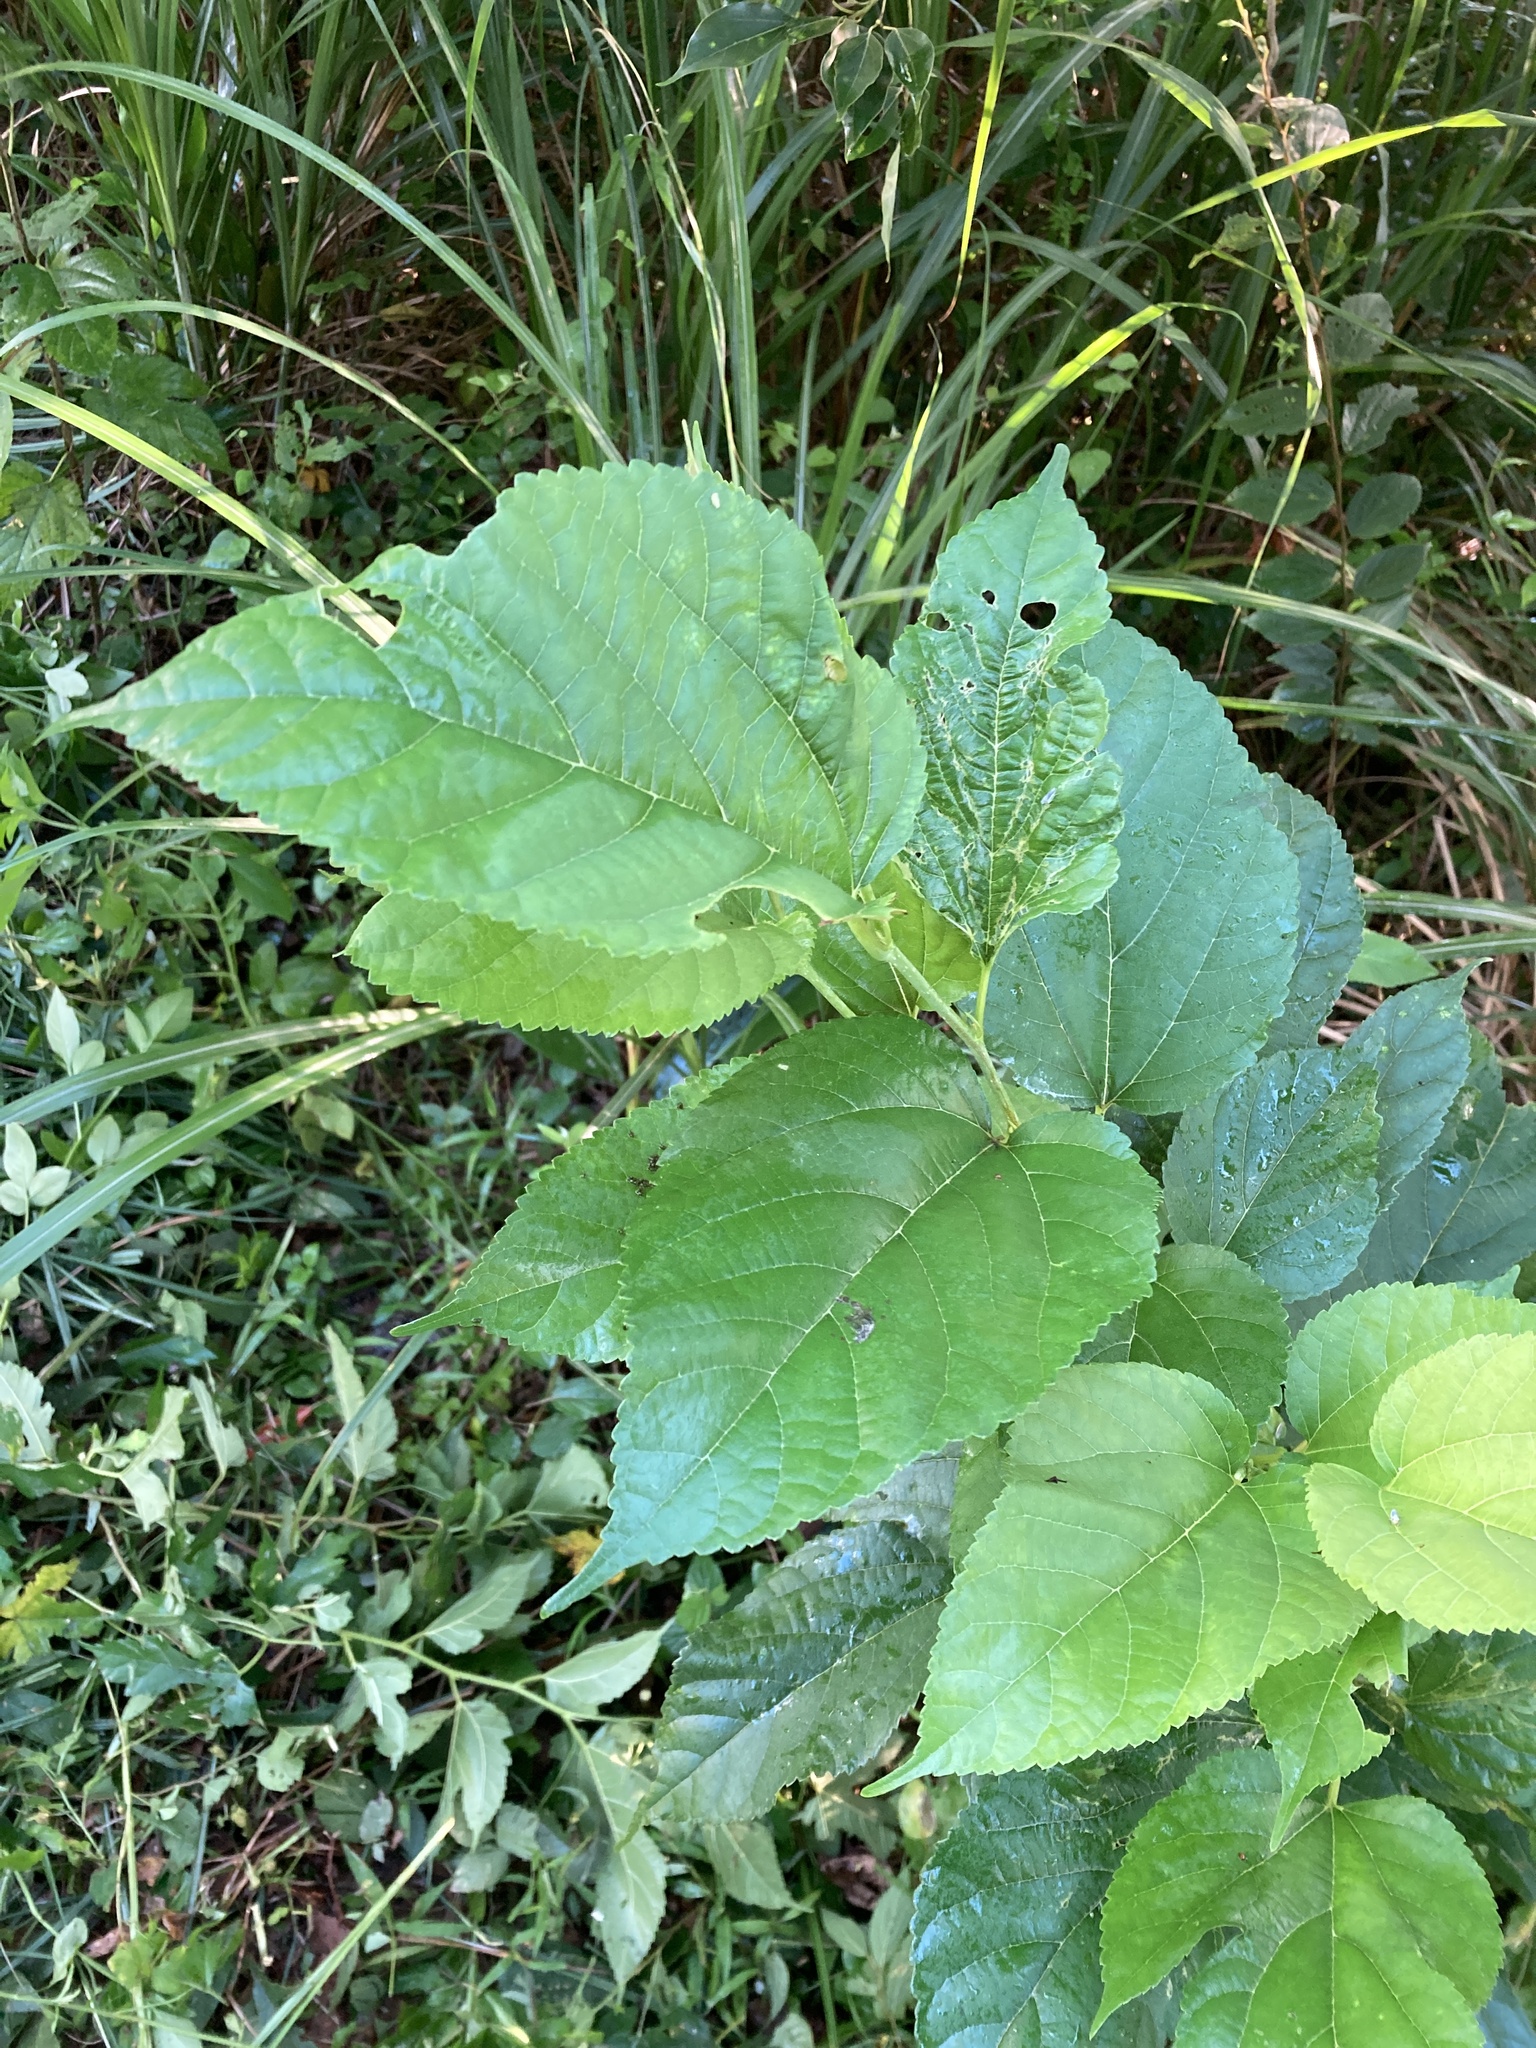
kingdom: Plantae
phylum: Tracheophyta
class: Magnoliopsida
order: Rosales
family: Moraceae
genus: Morus
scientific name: Morus indica
